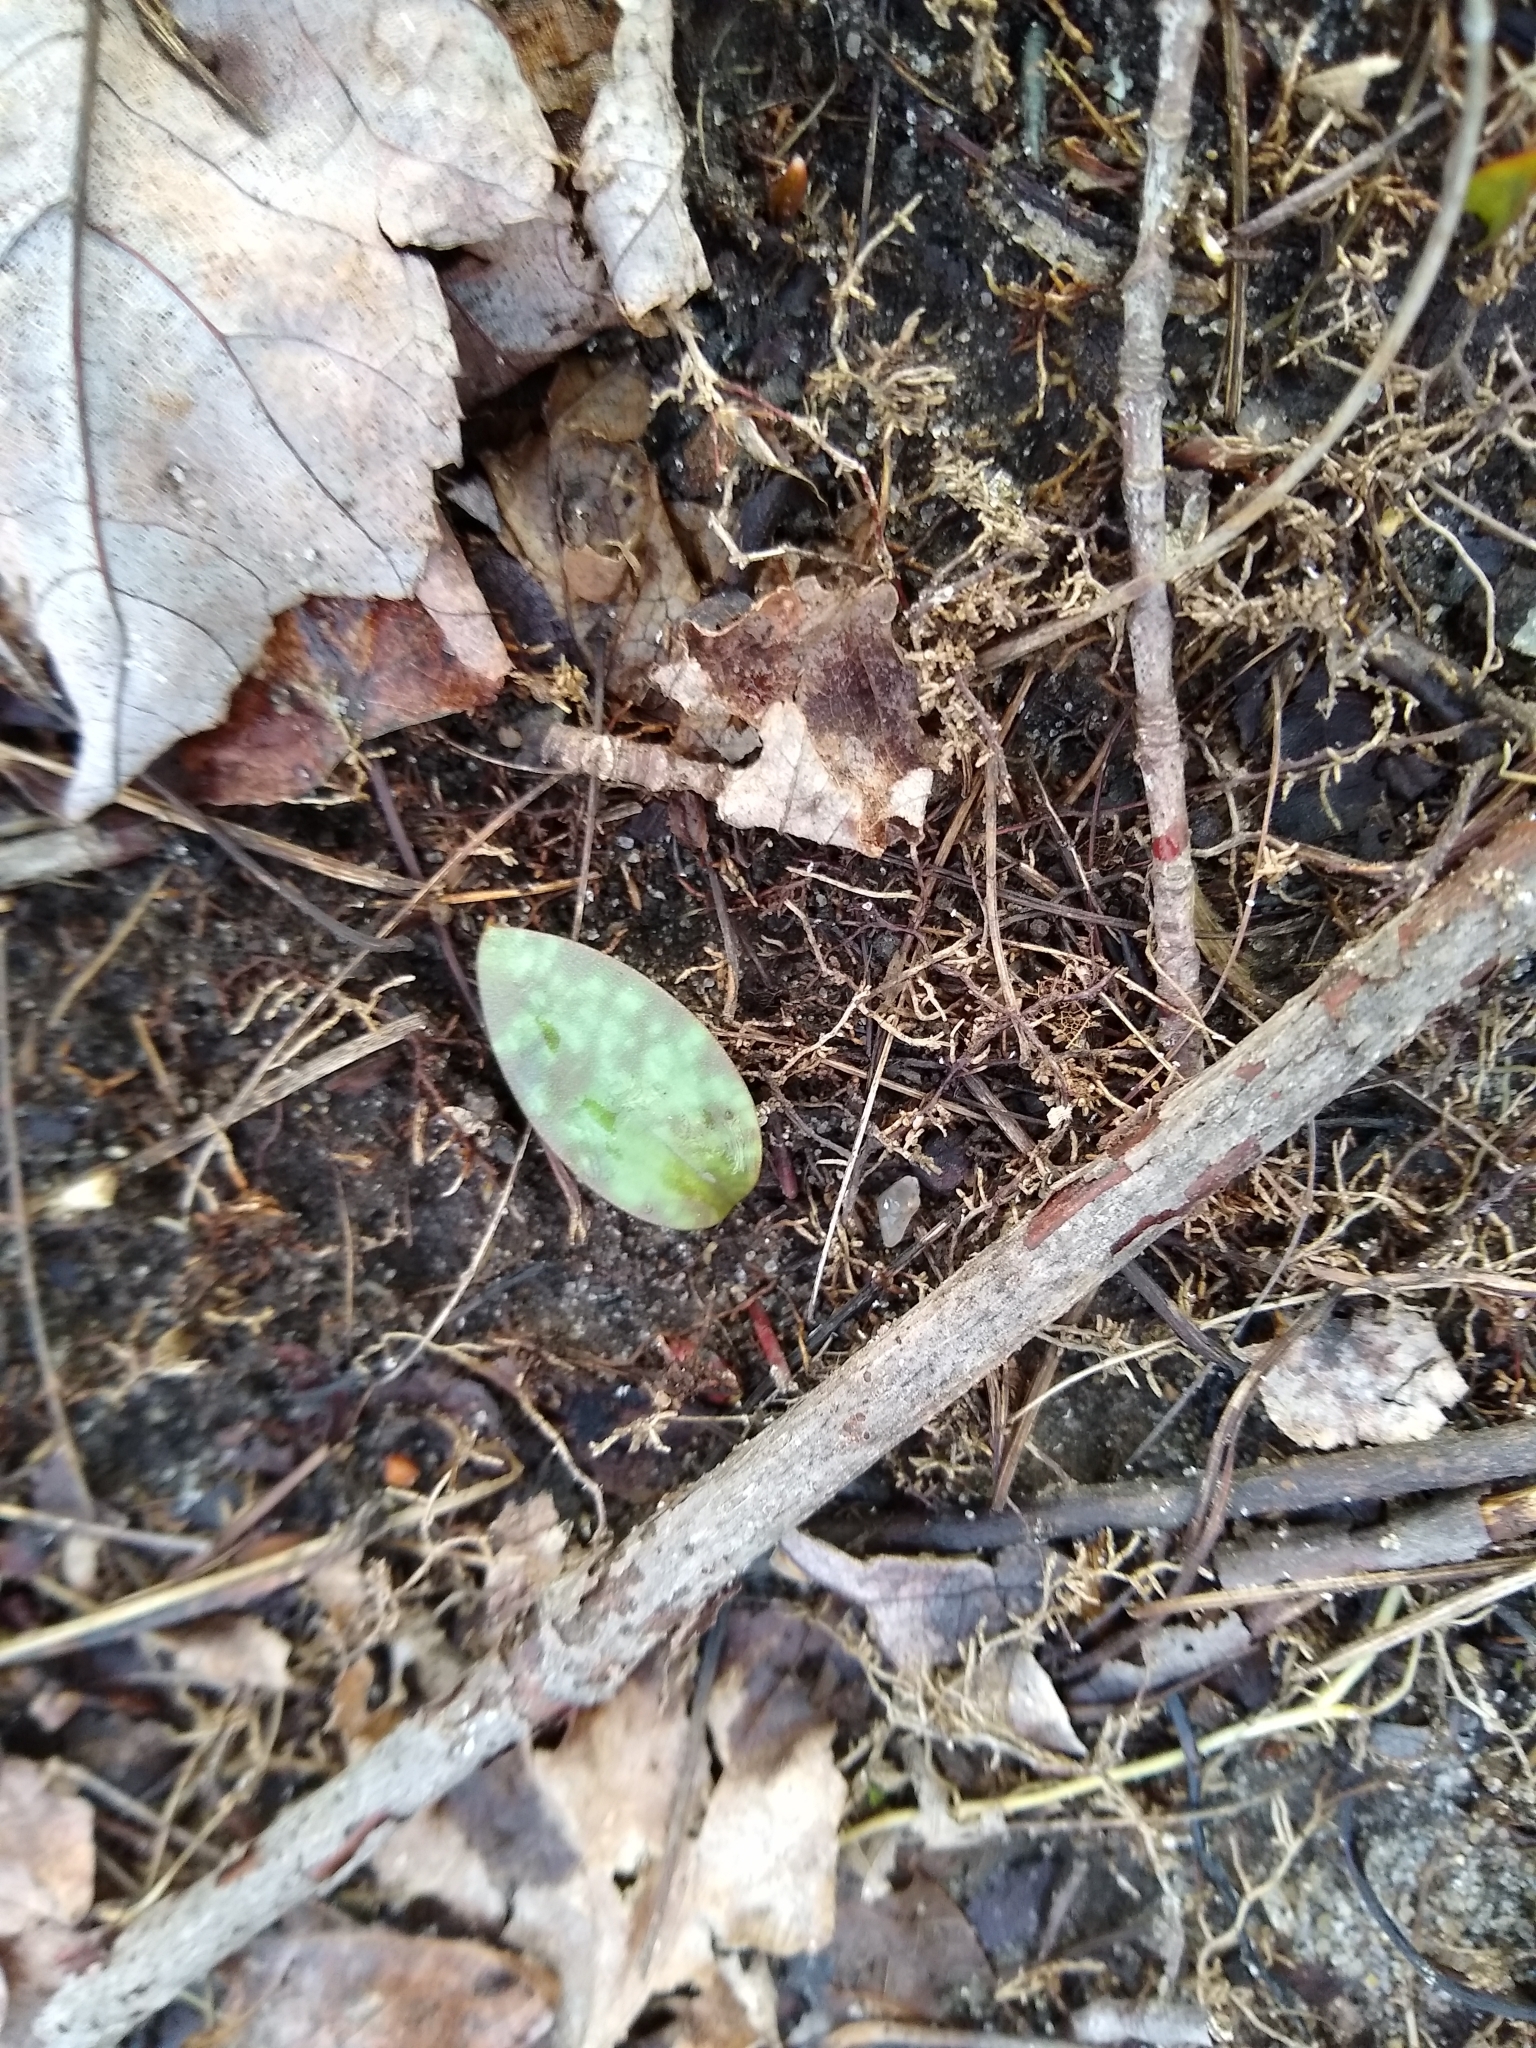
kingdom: Plantae
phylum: Tracheophyta
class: Liliopsida
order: Liliales
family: Liliaceae
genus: Erythronium
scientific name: Erythronium americanum
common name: Yellow adder's-tongue
